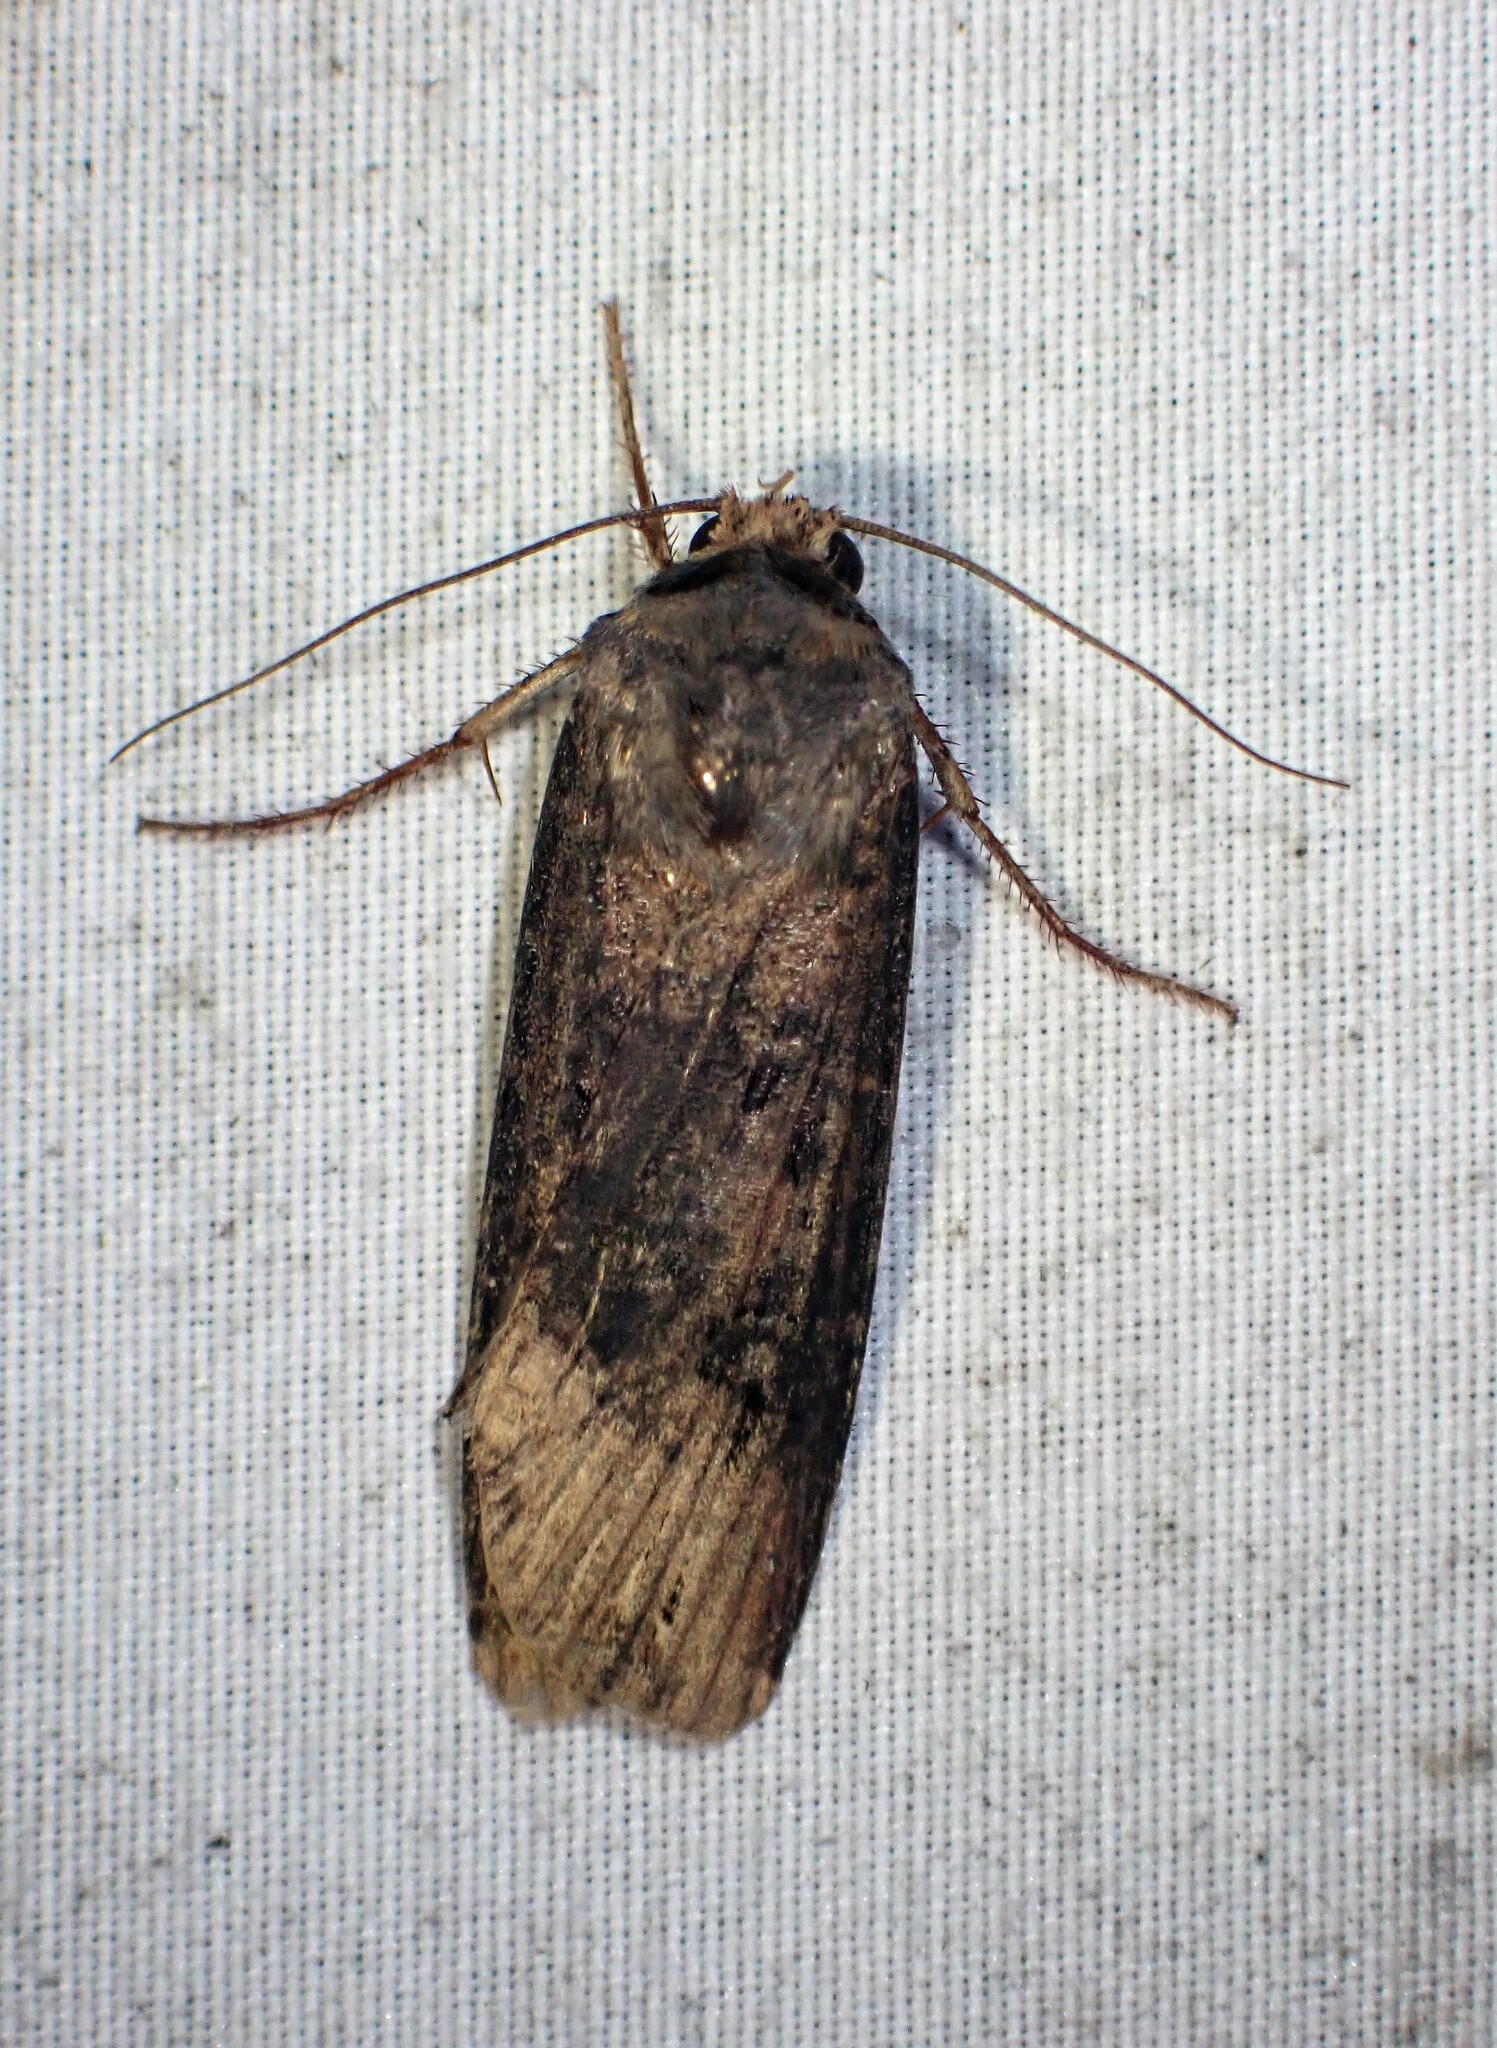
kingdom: Animalia
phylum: Arthropoda
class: Insecta
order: Lepidoptera
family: Noctuidae
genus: Agrotis
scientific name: Agrotis ipsilon
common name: Dark sword-grass
